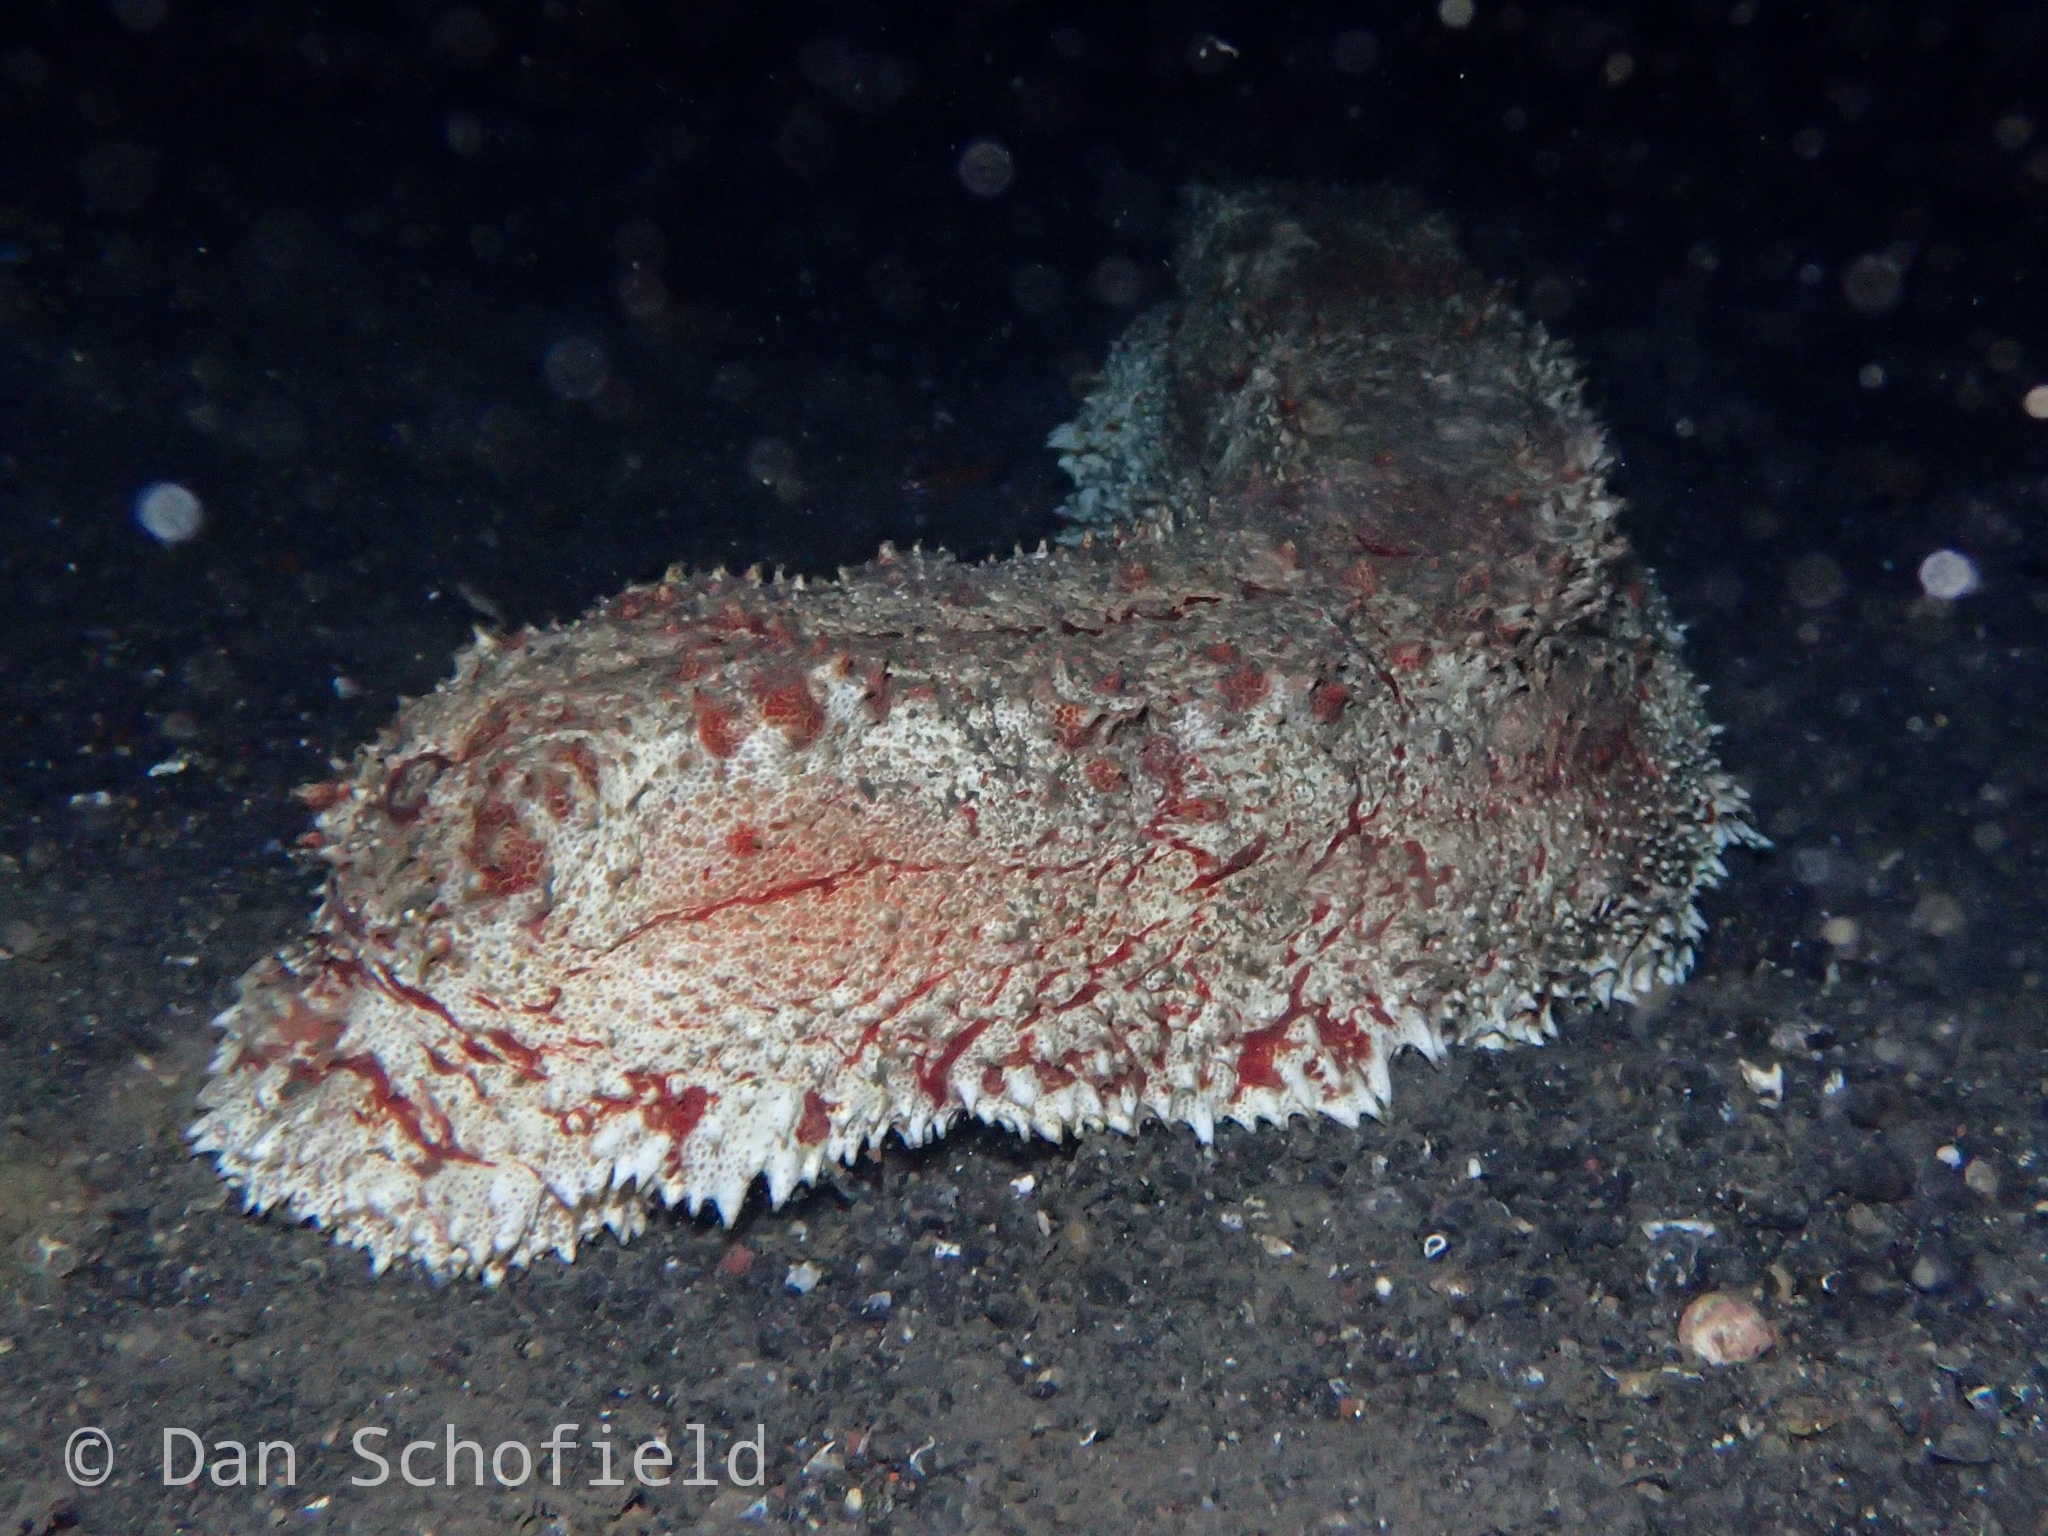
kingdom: Animalia
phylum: Echinodermata
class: Holothuroidea
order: Synallactida
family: Stichopodidae
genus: Thelenota
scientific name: Thelenota anax
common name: Amberfish
